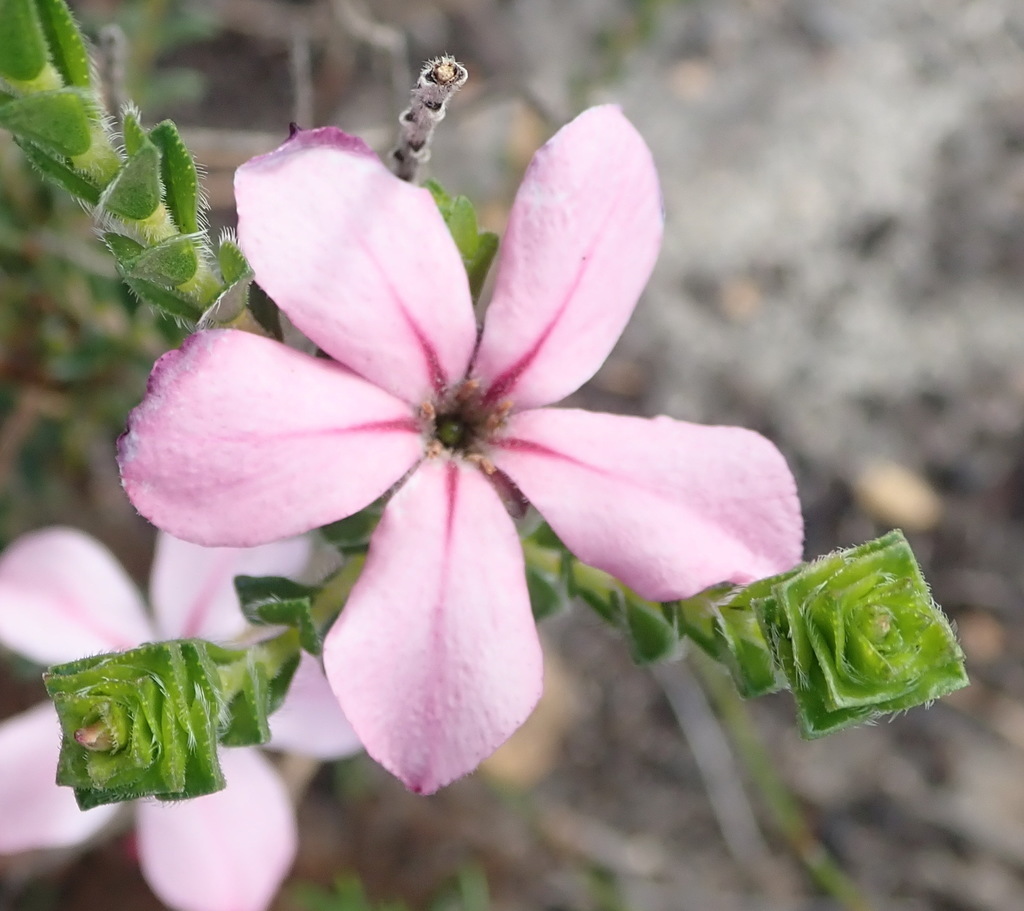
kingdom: Plantae
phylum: Tracheophyta
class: Magnoliopsida
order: Sapindales
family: Rutaceae
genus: Acmadenia
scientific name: Acmadenia tetragona
